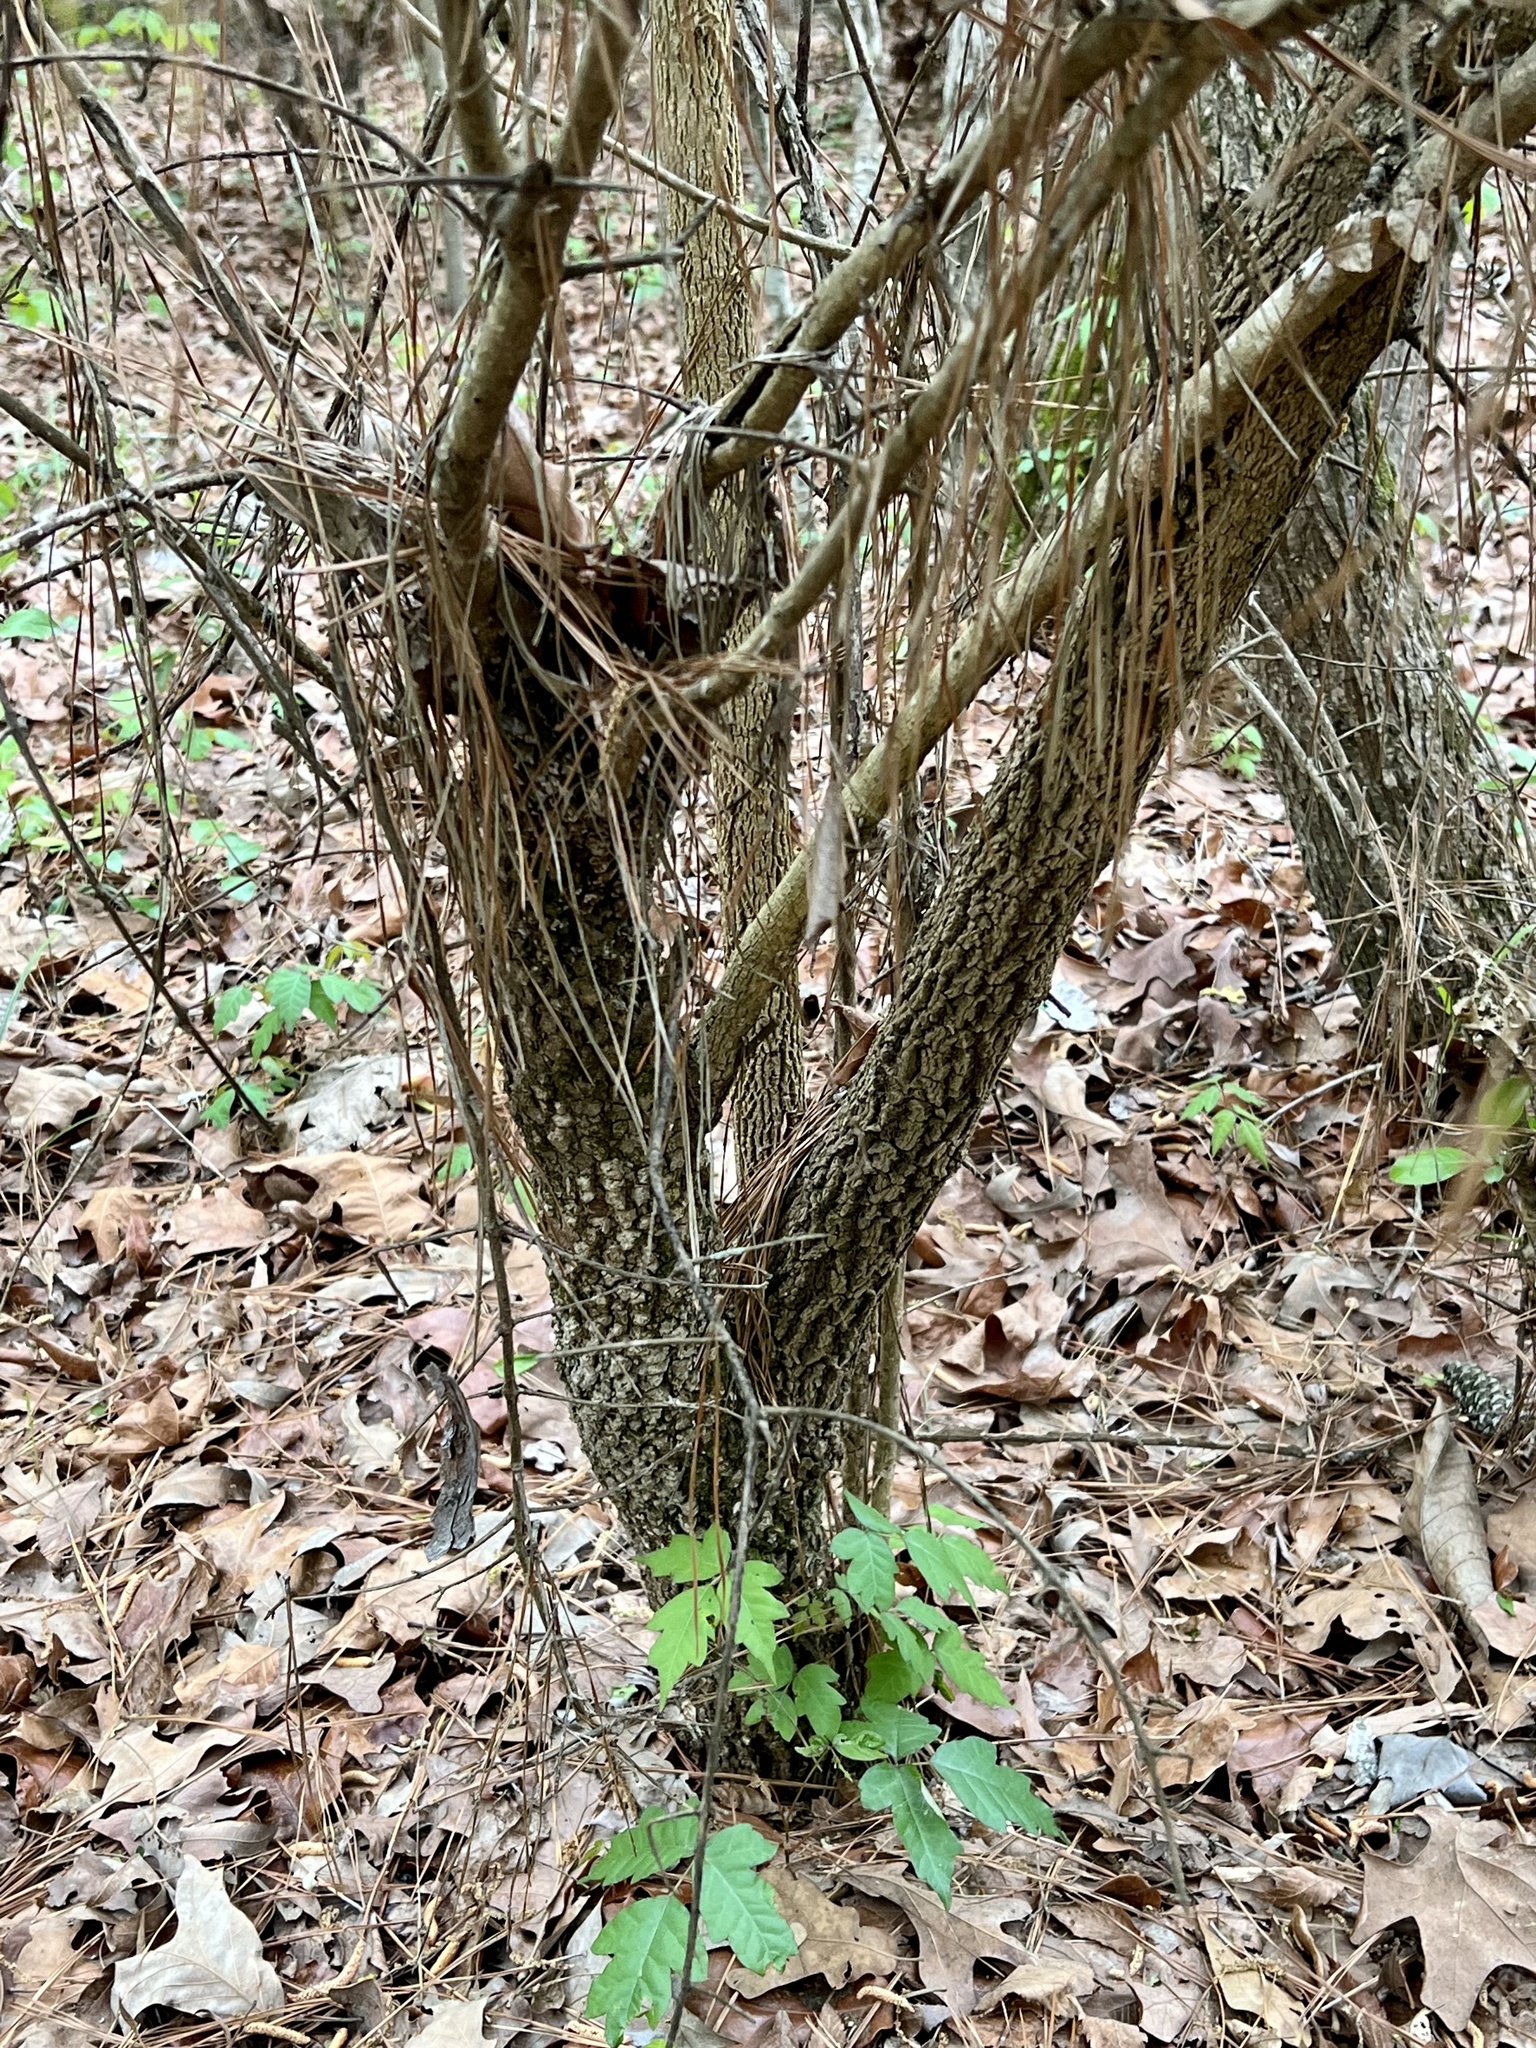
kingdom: Plantae
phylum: Tracheophyta
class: Magnoliopsida
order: Dipsacales
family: Viburnaceae
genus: Viburnum
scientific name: Viburnum rufidulum
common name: Blue haw
